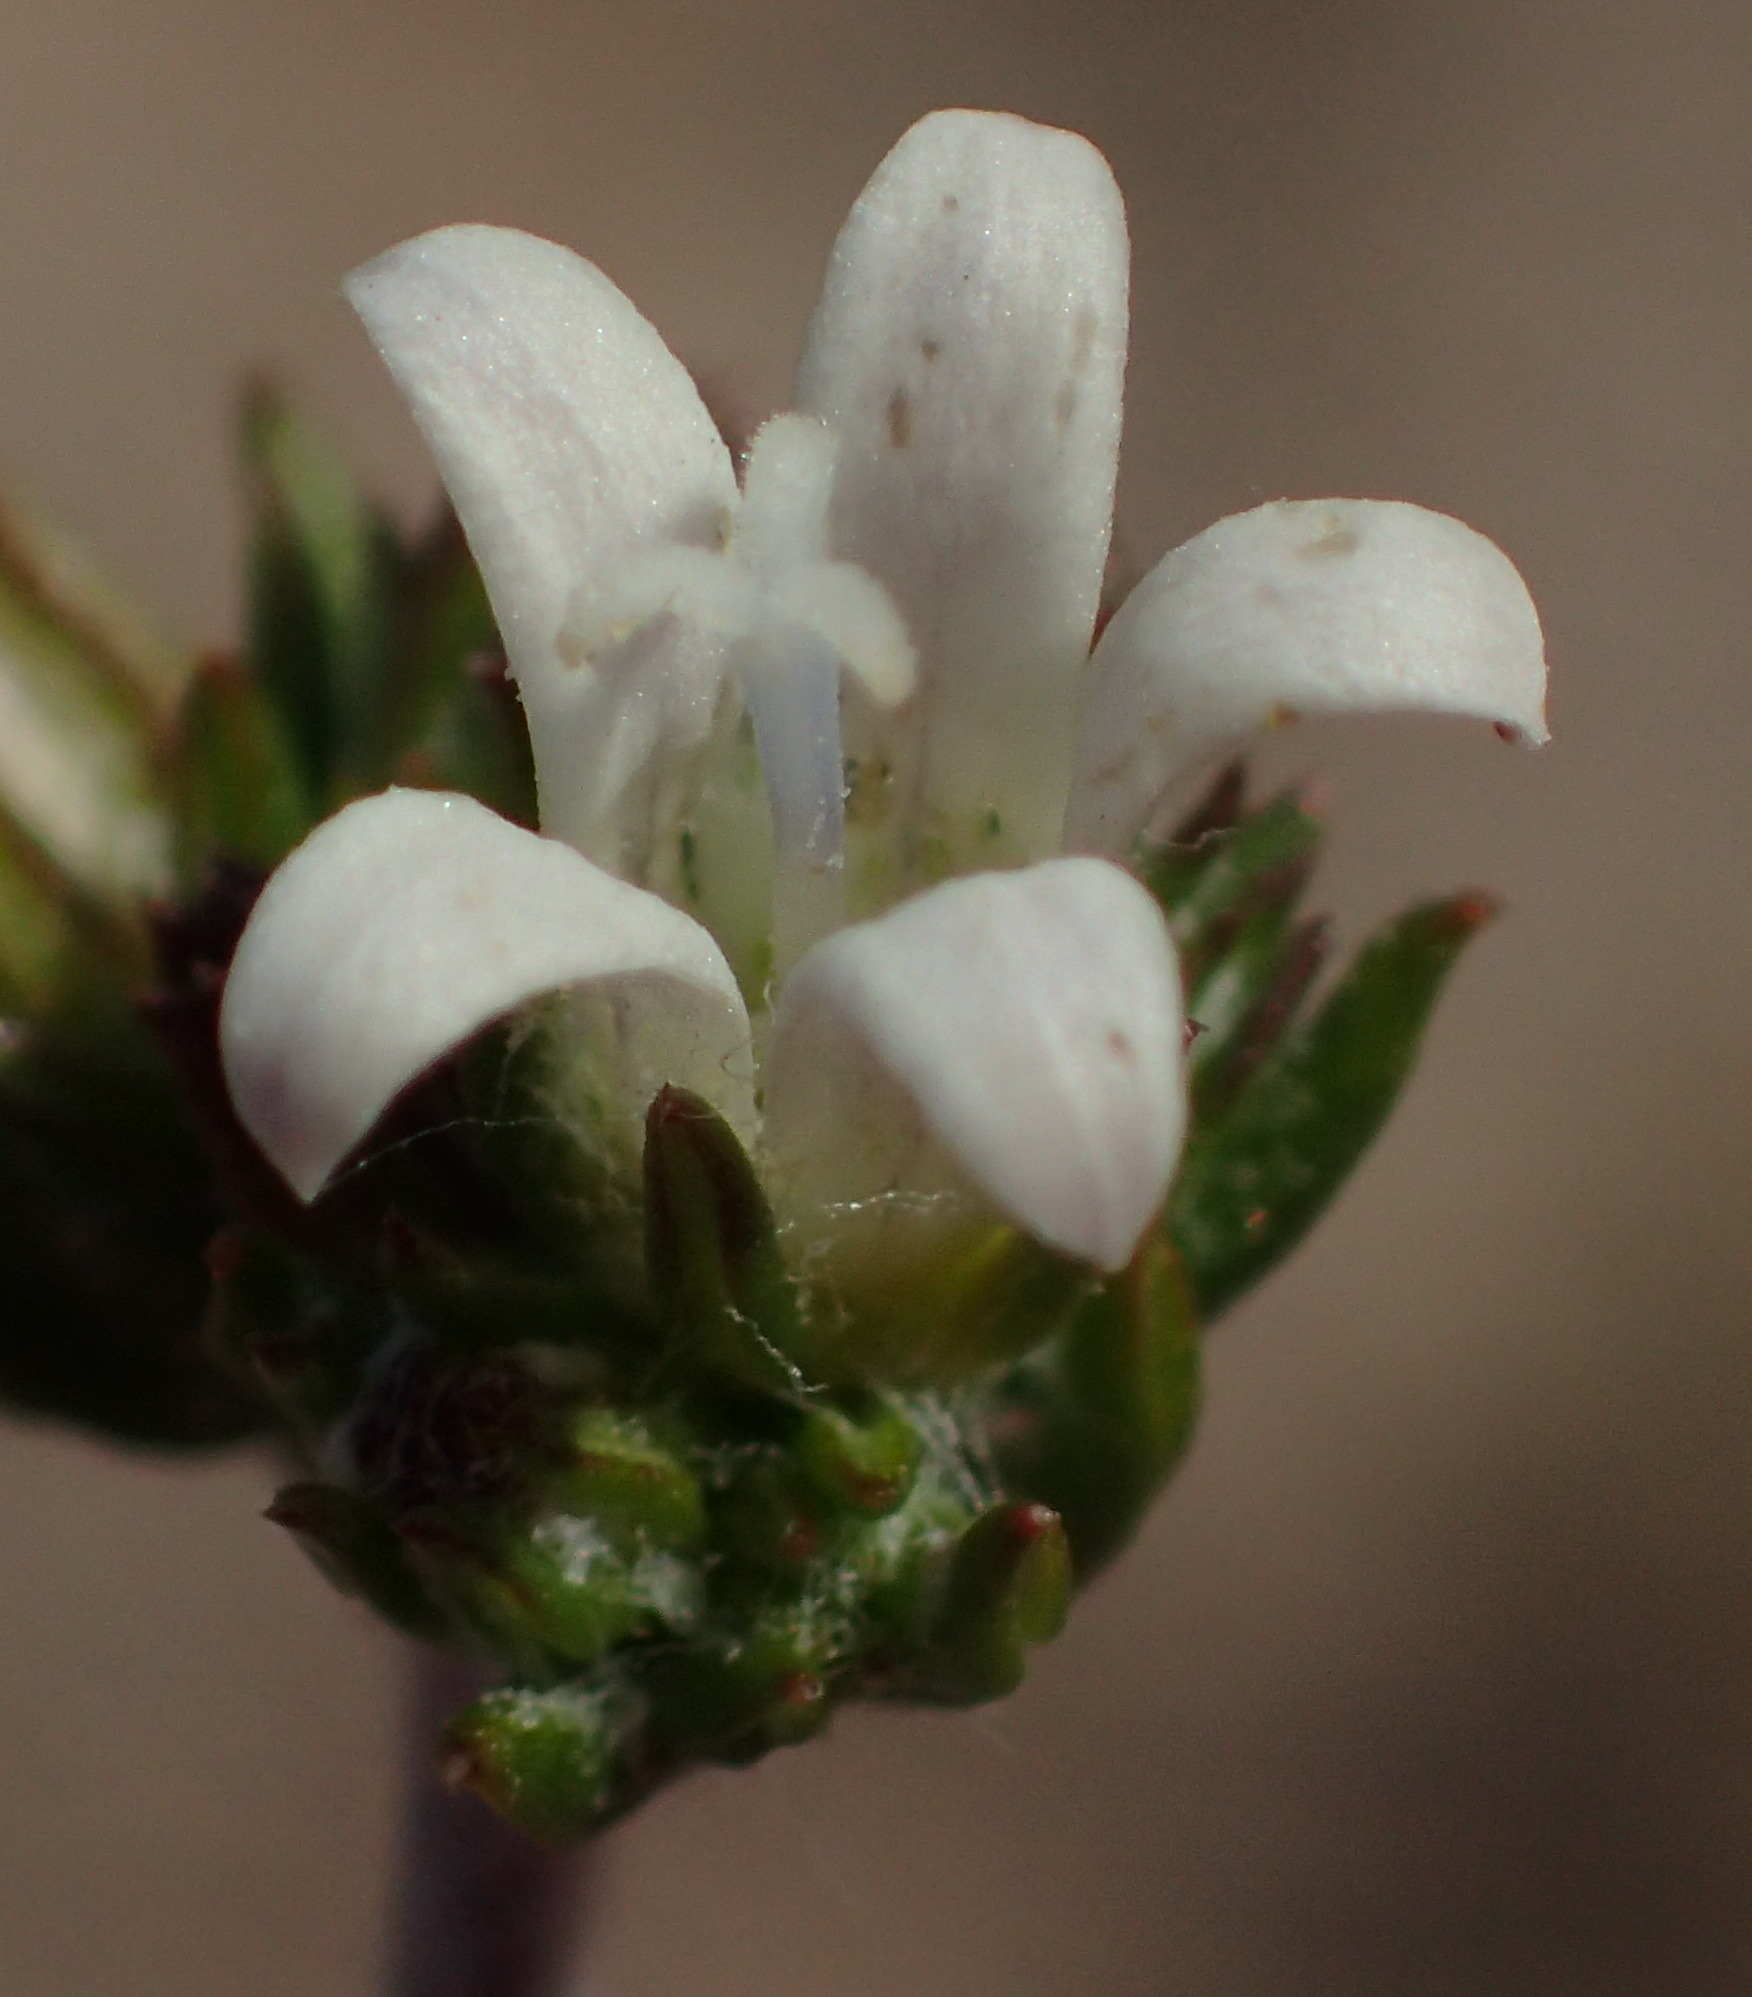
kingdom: Plantae
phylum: Tracheophyta
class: Magnoliopsida
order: Asterales
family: Campanulaceae
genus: Wahlenbergia
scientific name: Wahlenbergia cinerea
